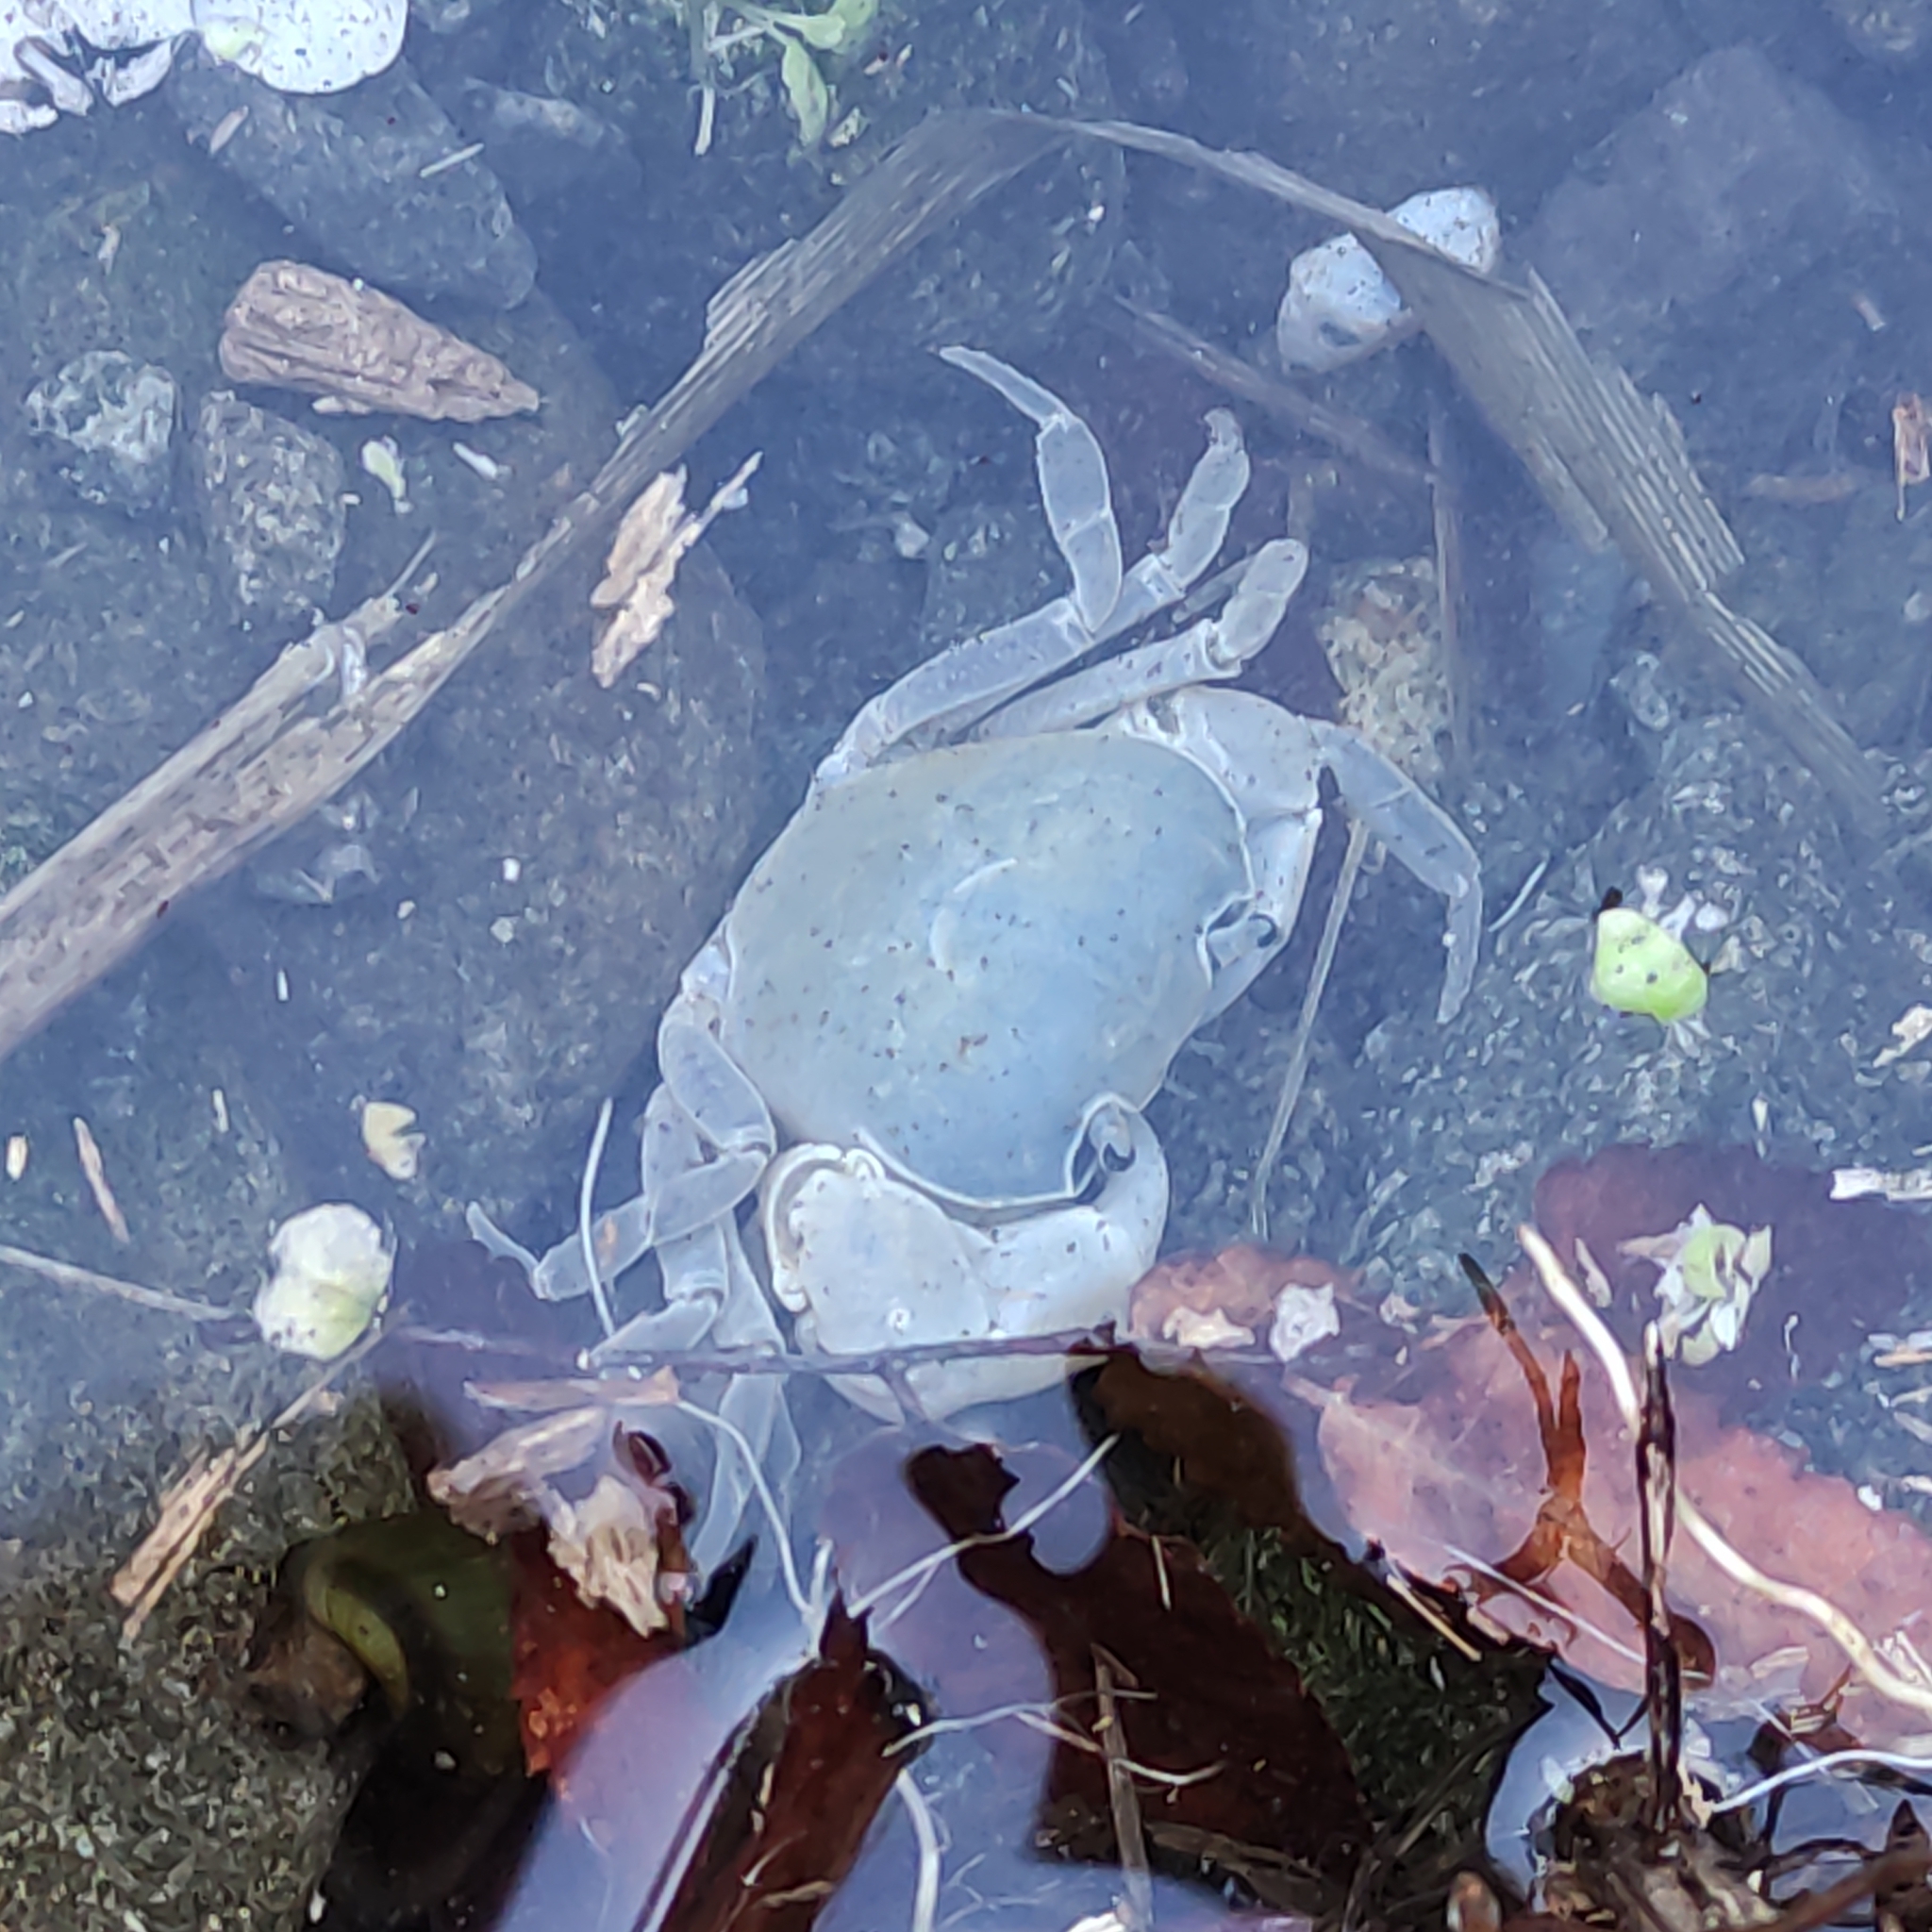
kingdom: Animalia
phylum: Arthropoda
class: Malacostraca
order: Decapoda
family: Potamidae
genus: Geothelphusa
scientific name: Geothelphusa dehaani
